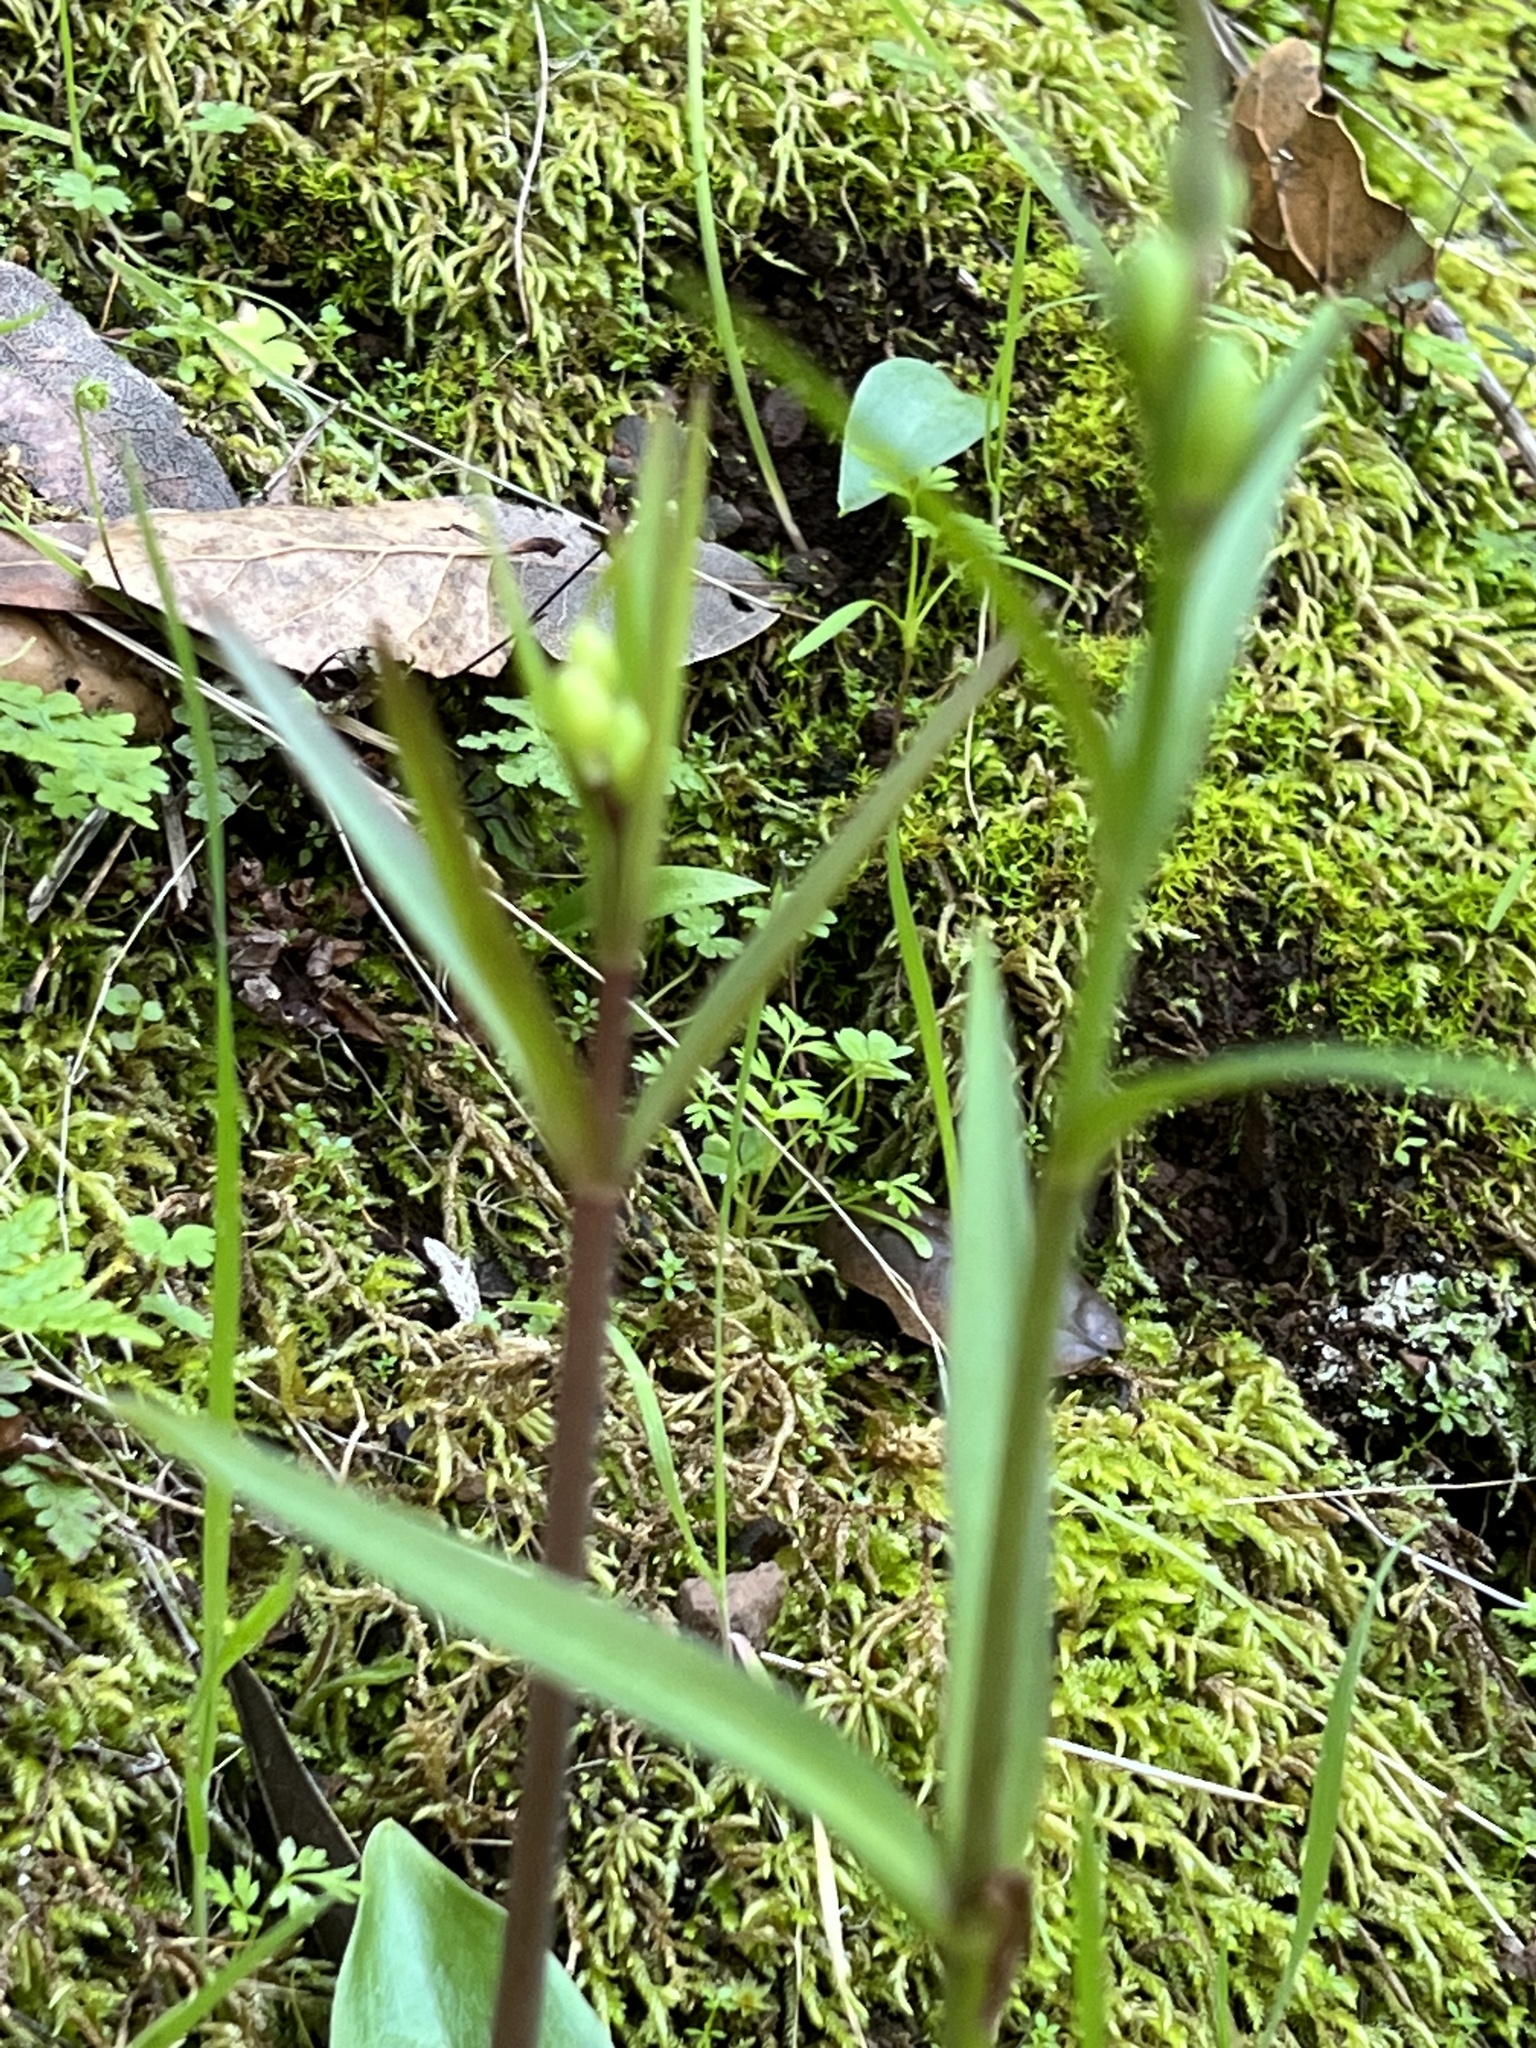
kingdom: Plantae
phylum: Tracheophyta
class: Liliopsida
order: Liliales
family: Liliaceae
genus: Fritillaria
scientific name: Fritillaria affinis
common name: Ojai fritillary
